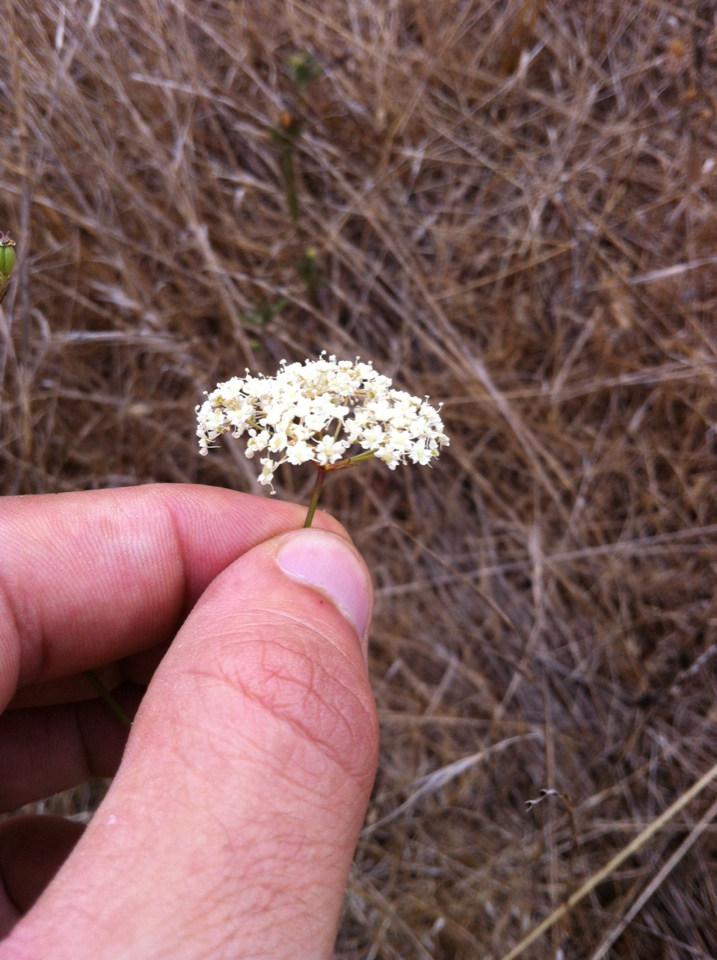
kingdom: Plantae
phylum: Tracheophyta
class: Magnoliopsida
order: Apiales
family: Apiaceae
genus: Perideridia
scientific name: Perideridia kelloggii
